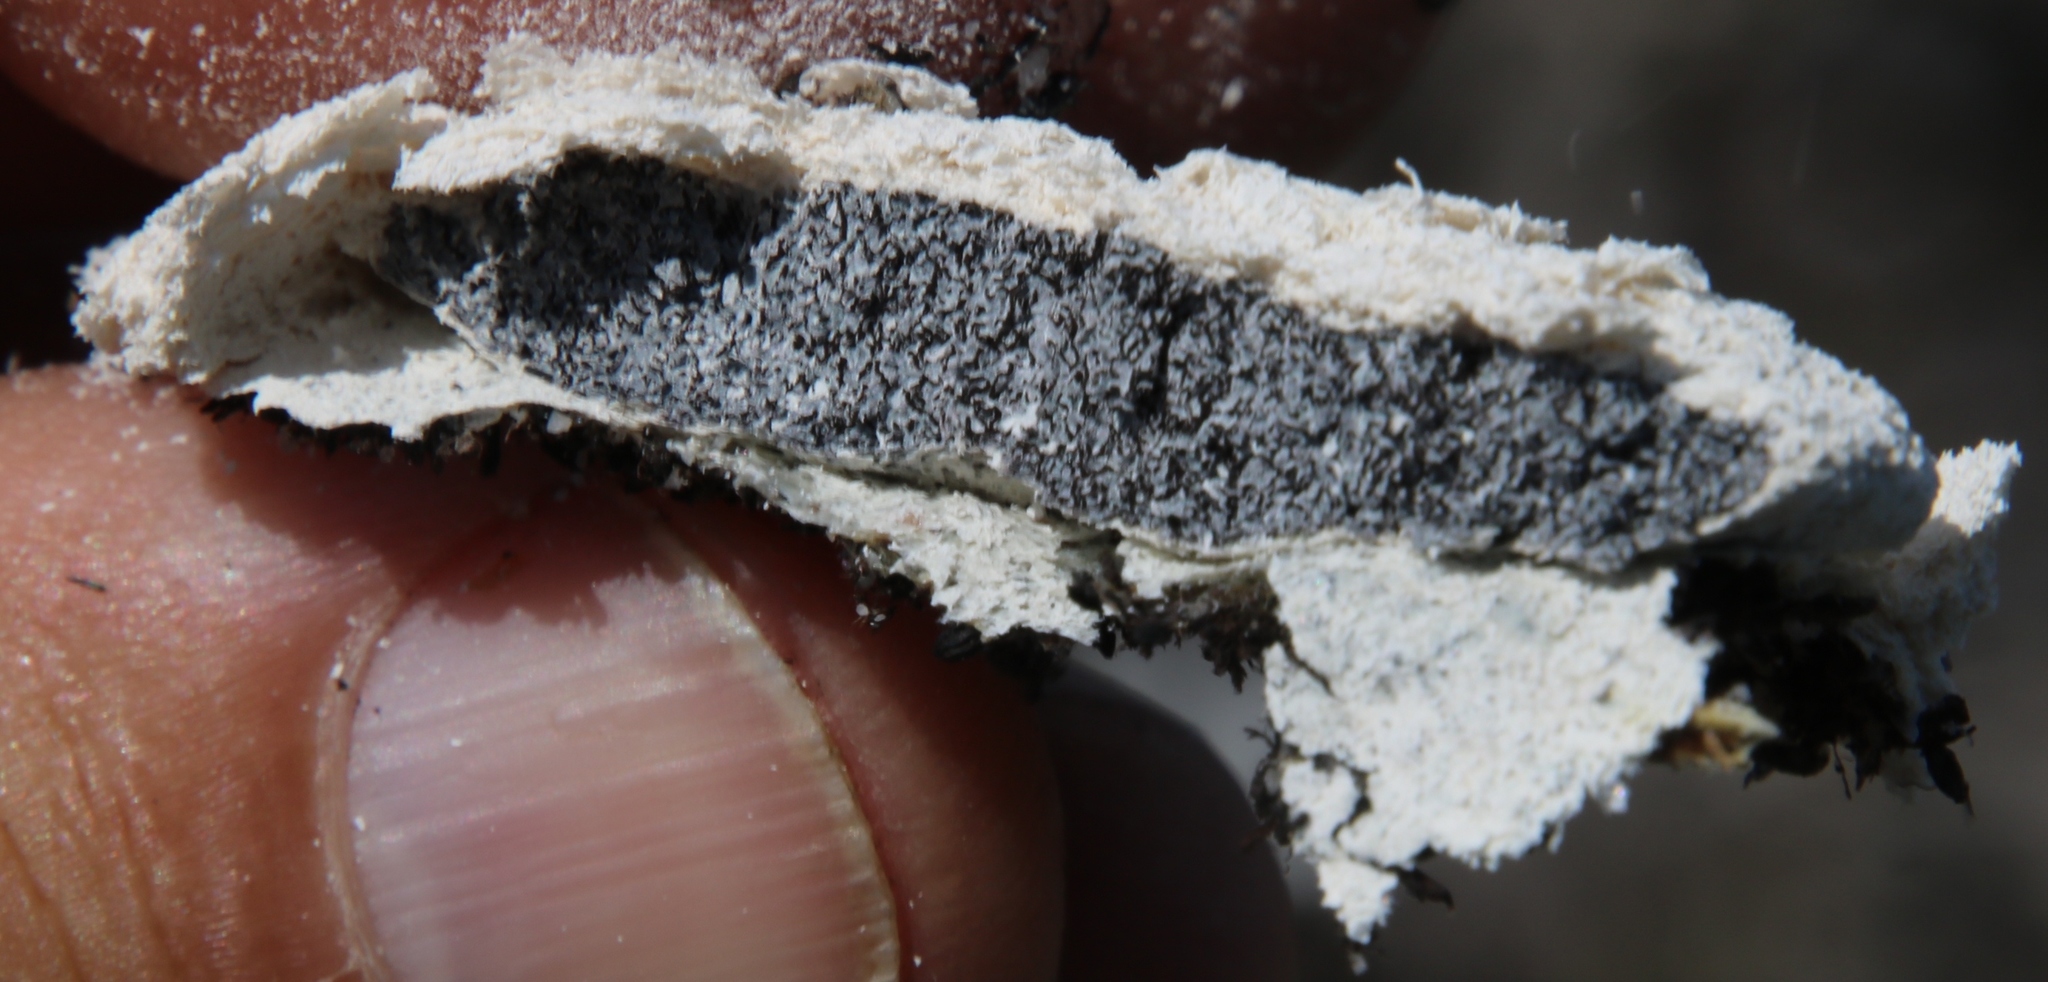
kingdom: Protozoa
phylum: Mycetozoa
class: Myxomycetes
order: Physarales
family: Physaraceae
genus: Fuligo
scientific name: Fuligo septica
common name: Dog vomit slime mold
